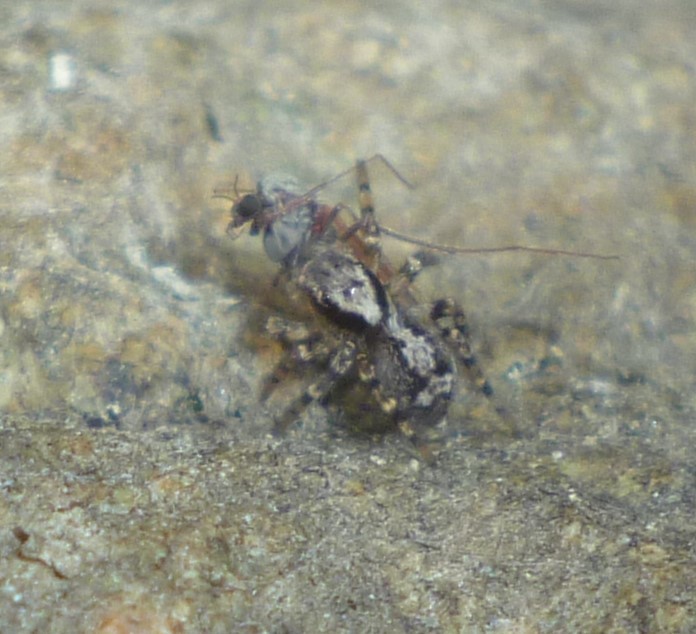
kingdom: Animalia
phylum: Arthropoda
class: Arachnida
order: Araneae
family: Salticidae
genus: Naphrys
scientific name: Naphrys pulex
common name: Flea jumping spider
